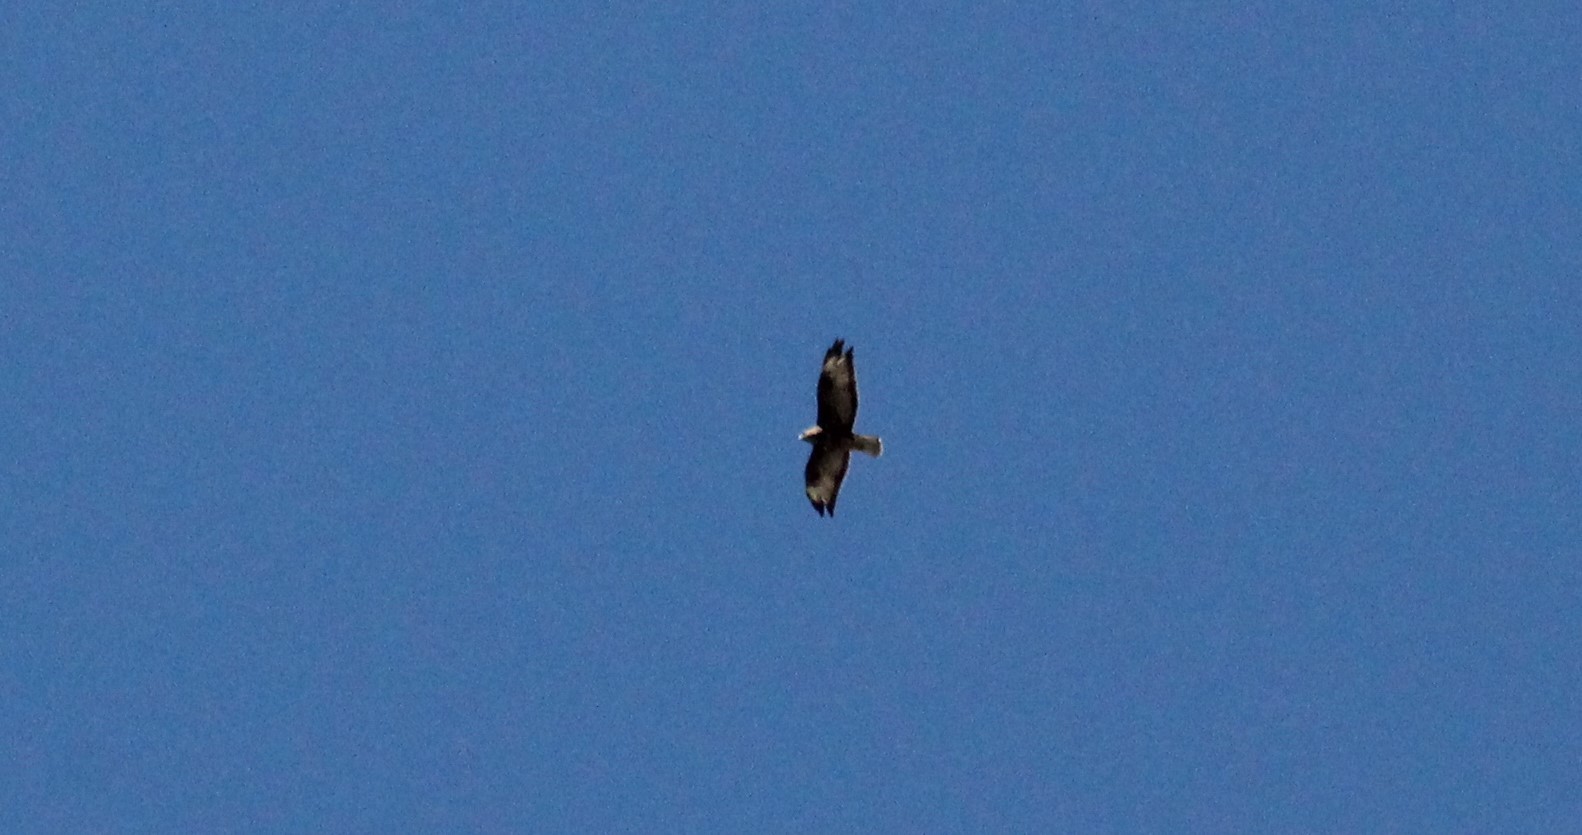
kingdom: Animalia
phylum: Chordata
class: Aves
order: Accipitriformes
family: Accipitridae
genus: Buteo
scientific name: Buteo buteo
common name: Common buzzard
